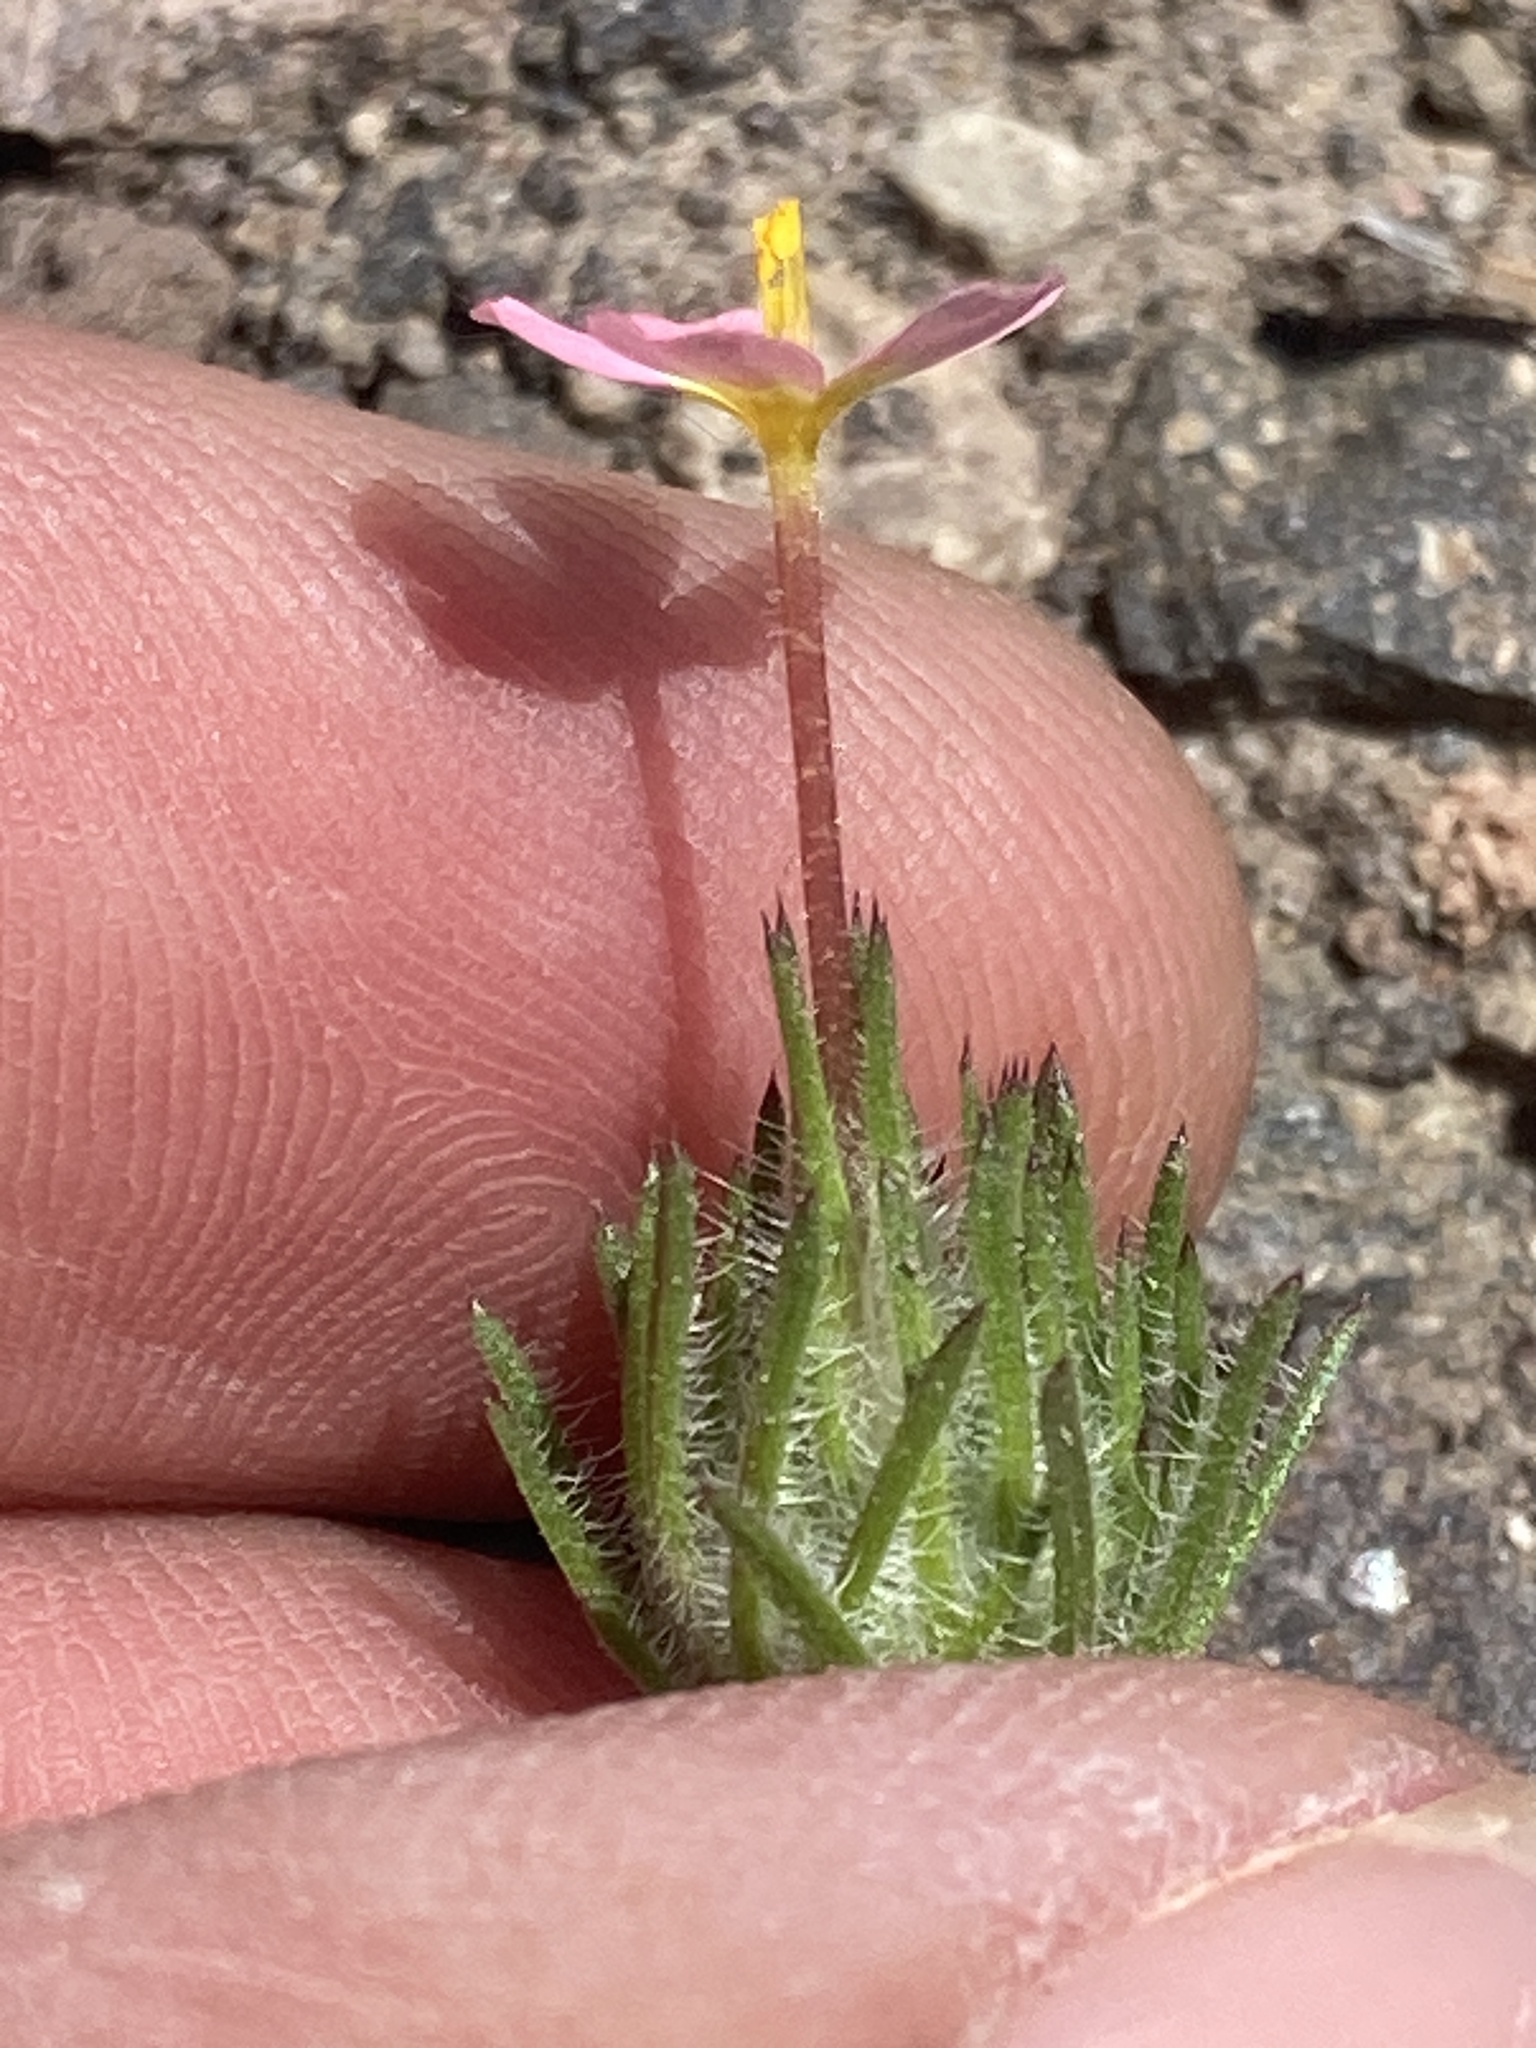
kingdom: Plantae
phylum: Tracheophyta
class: Magnoliopsida
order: Ericales
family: Polemoniaceae
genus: Leptosiphon
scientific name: Leptosiphon ciliatus
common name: Whiskerbrush
